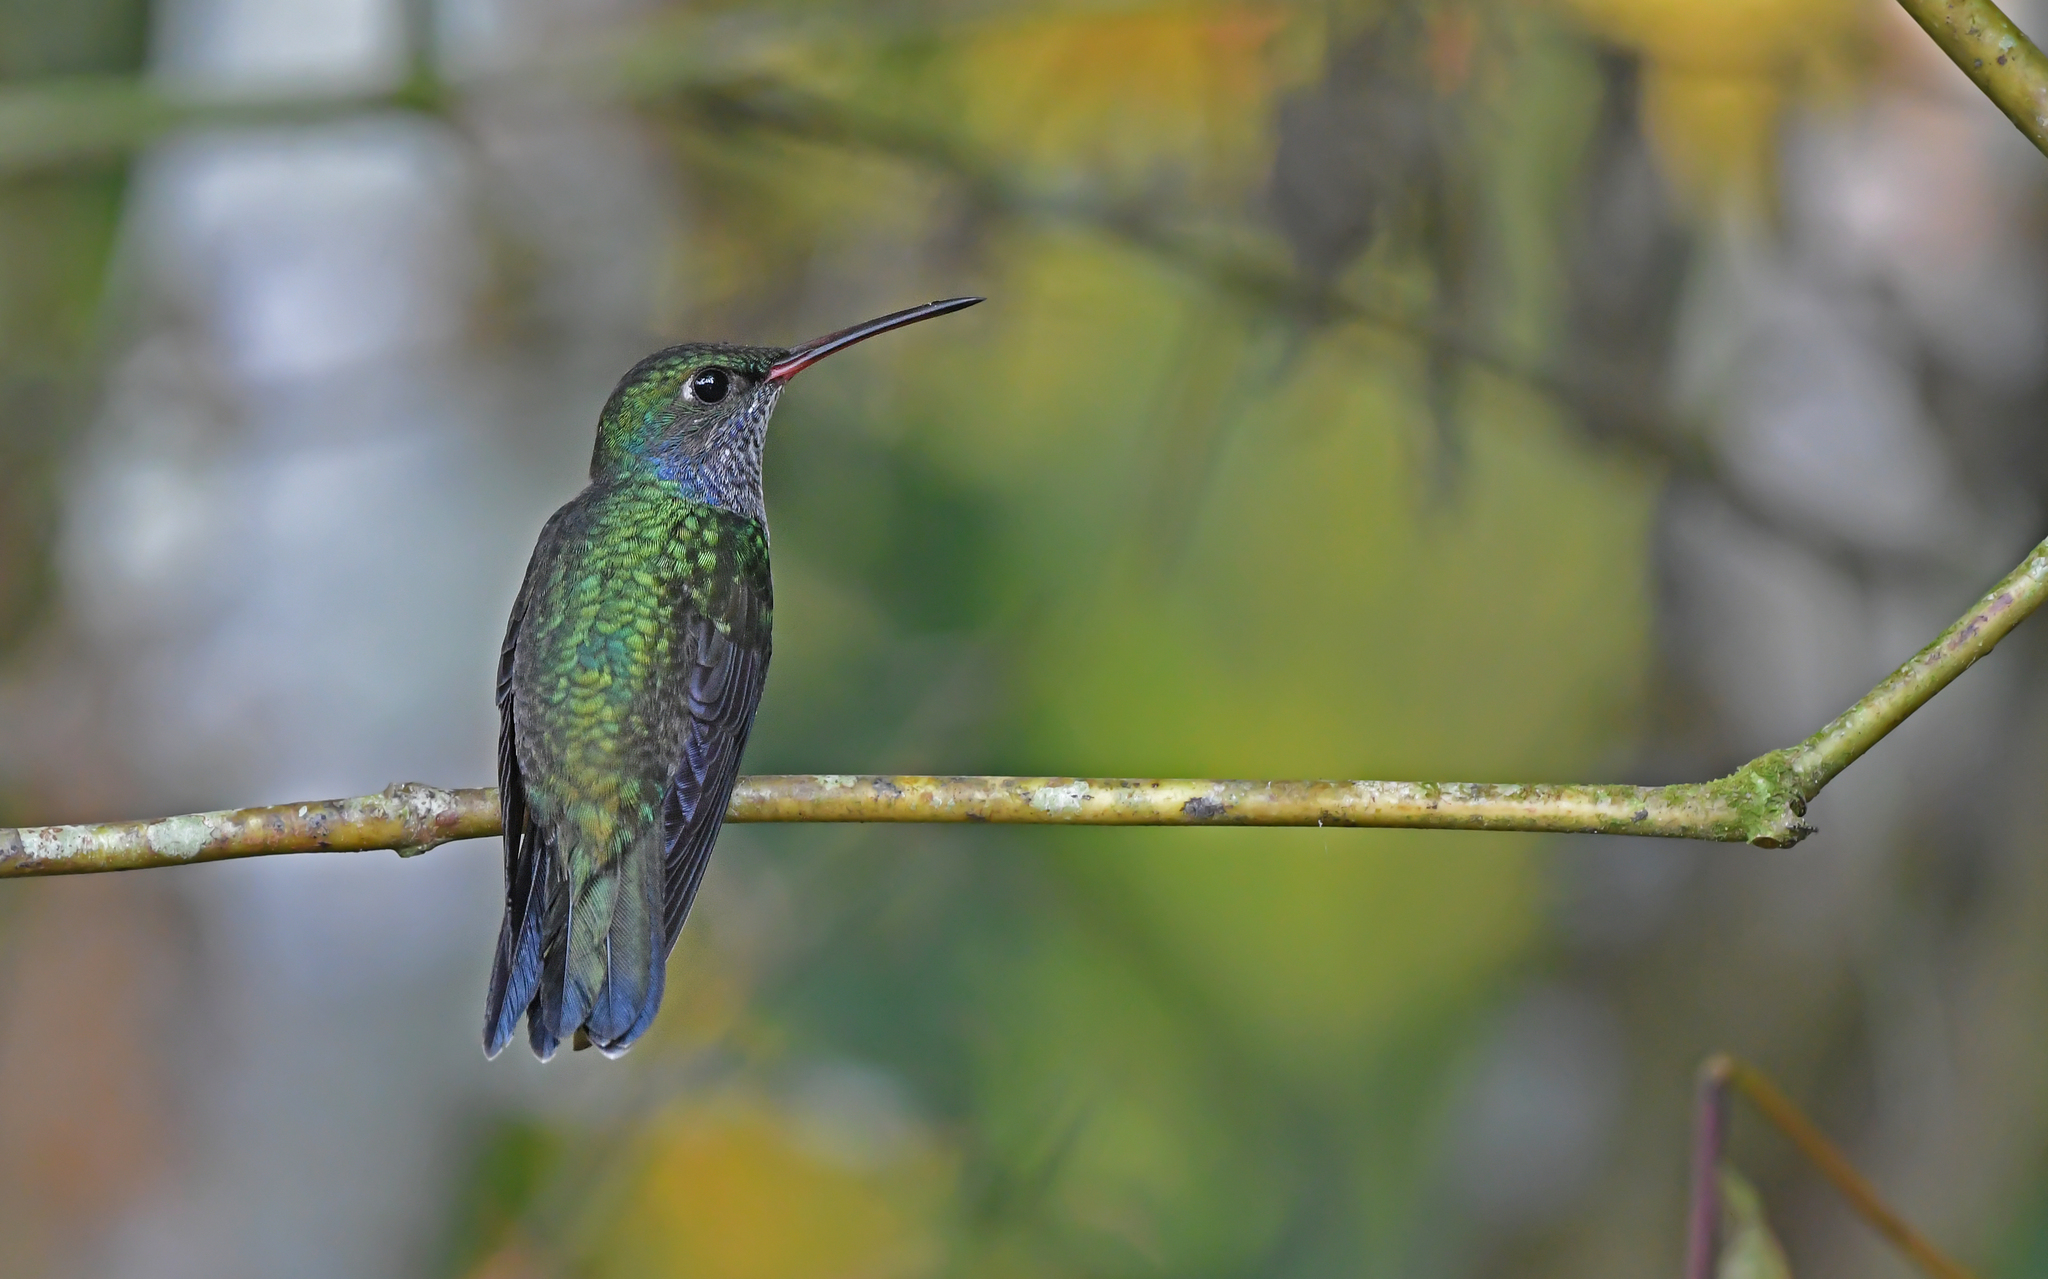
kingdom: Animalia
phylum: Chordata
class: Aves
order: Apodiformes
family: Trochilidae
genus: Chionomesa
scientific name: Chionomesa lactea
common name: Sapphire-spangled emerald
